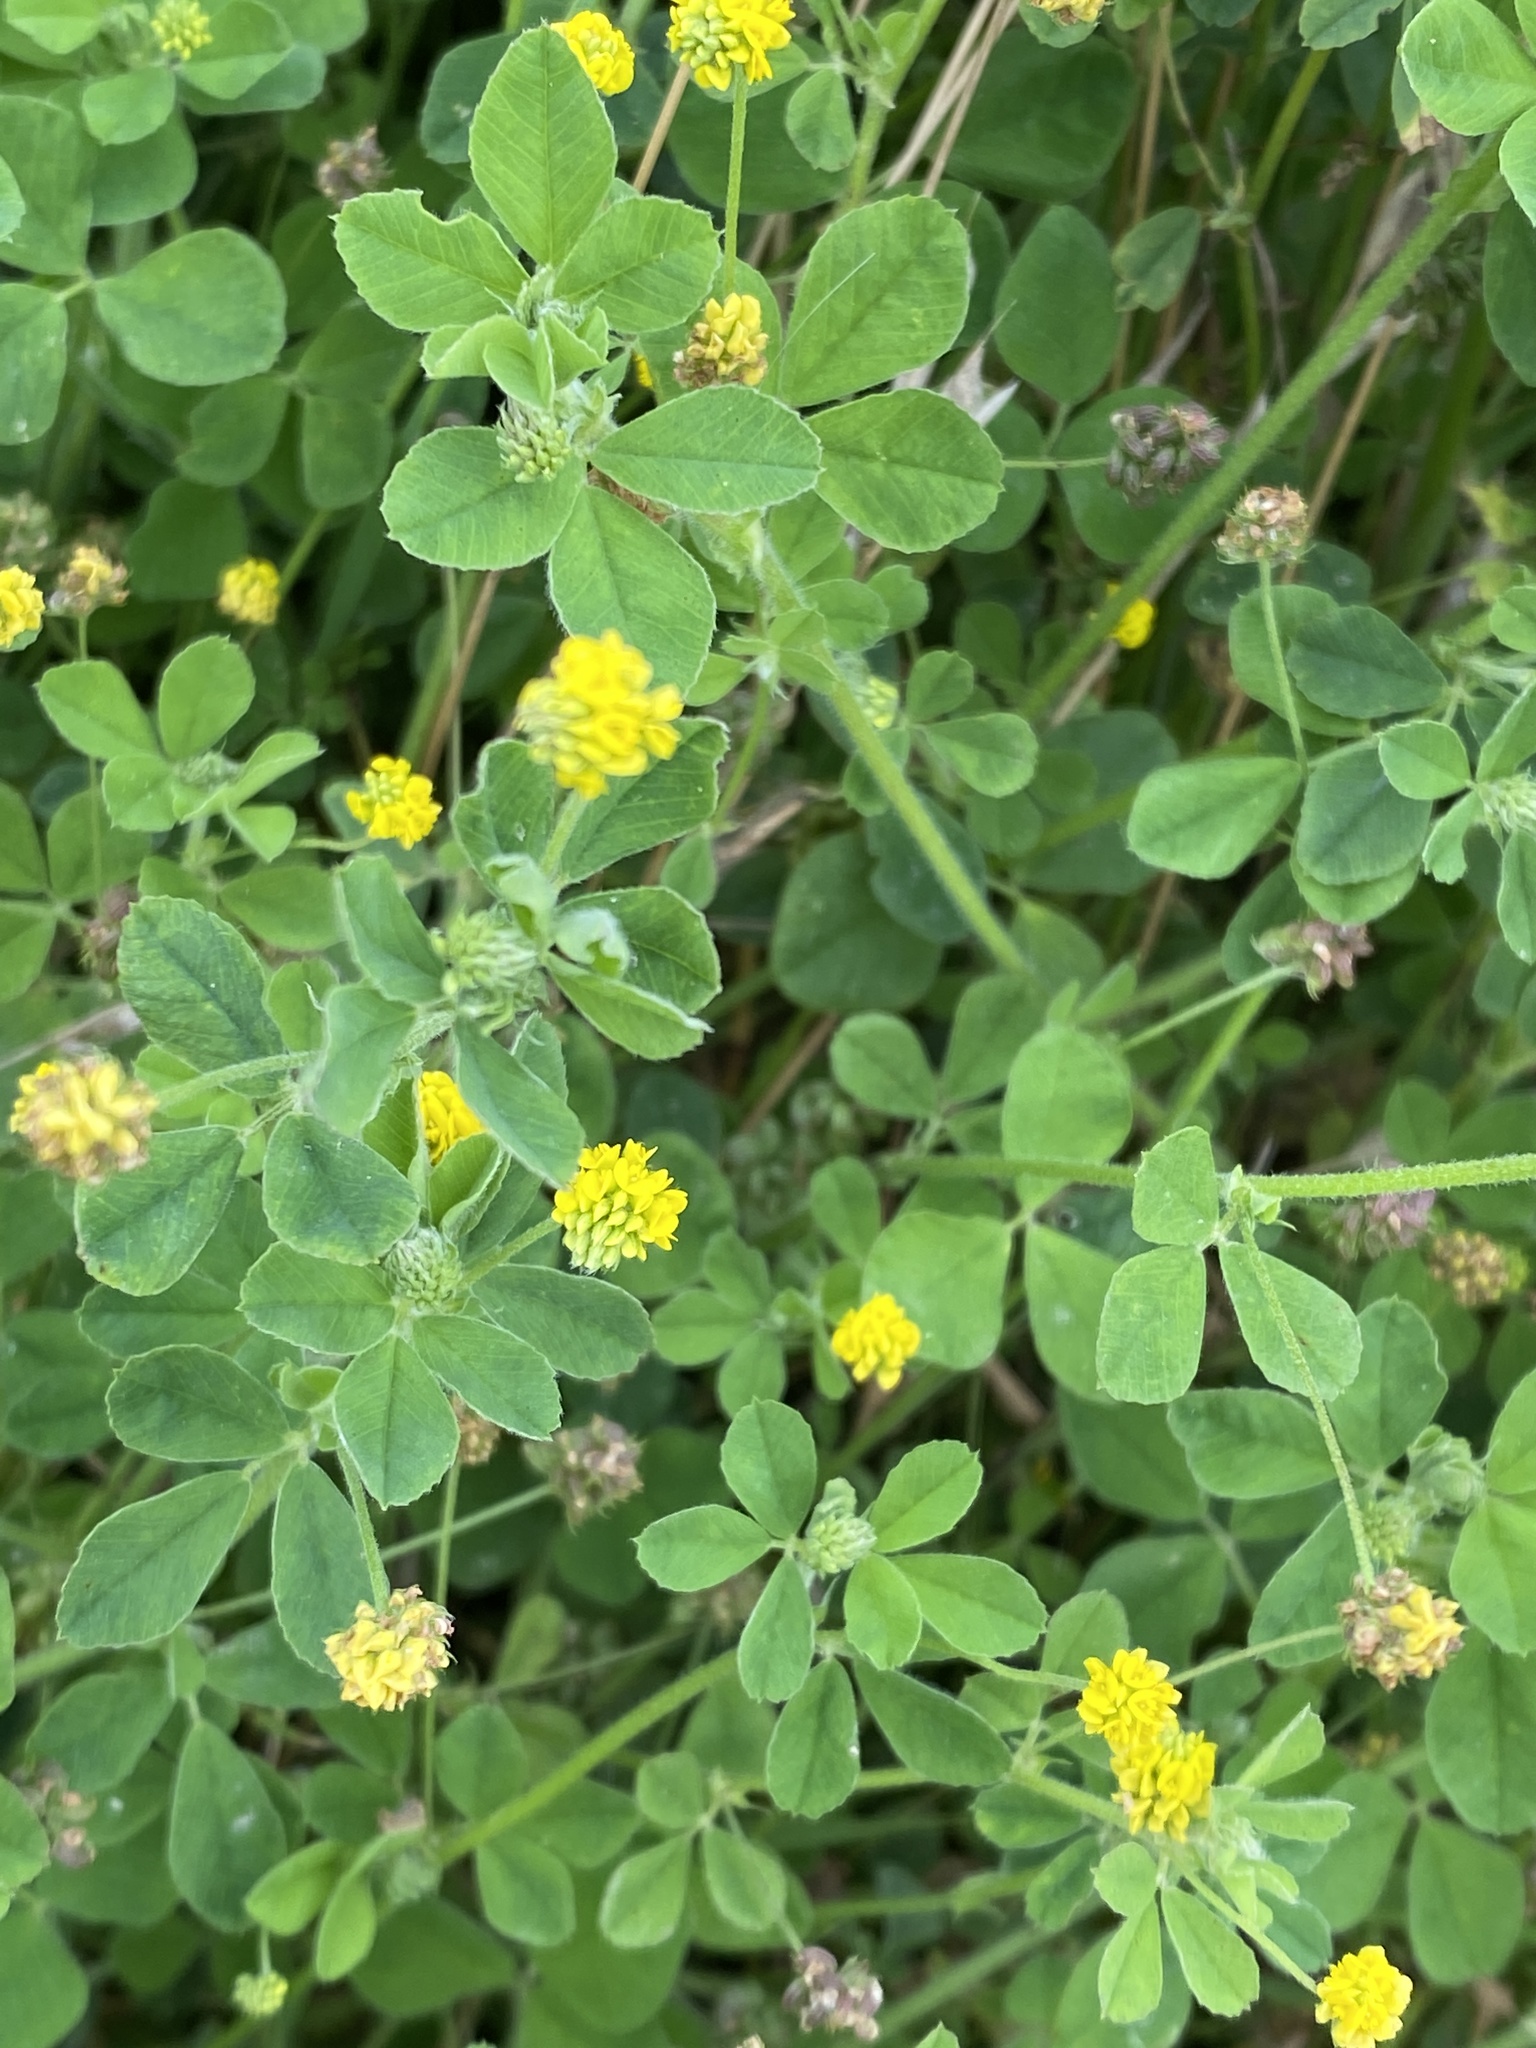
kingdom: Plantae
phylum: Tracheophyta
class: Magnoliopsida
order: Fabales
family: Fabaceae
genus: Medicago
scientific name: Medicago lupulina
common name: Black medick
